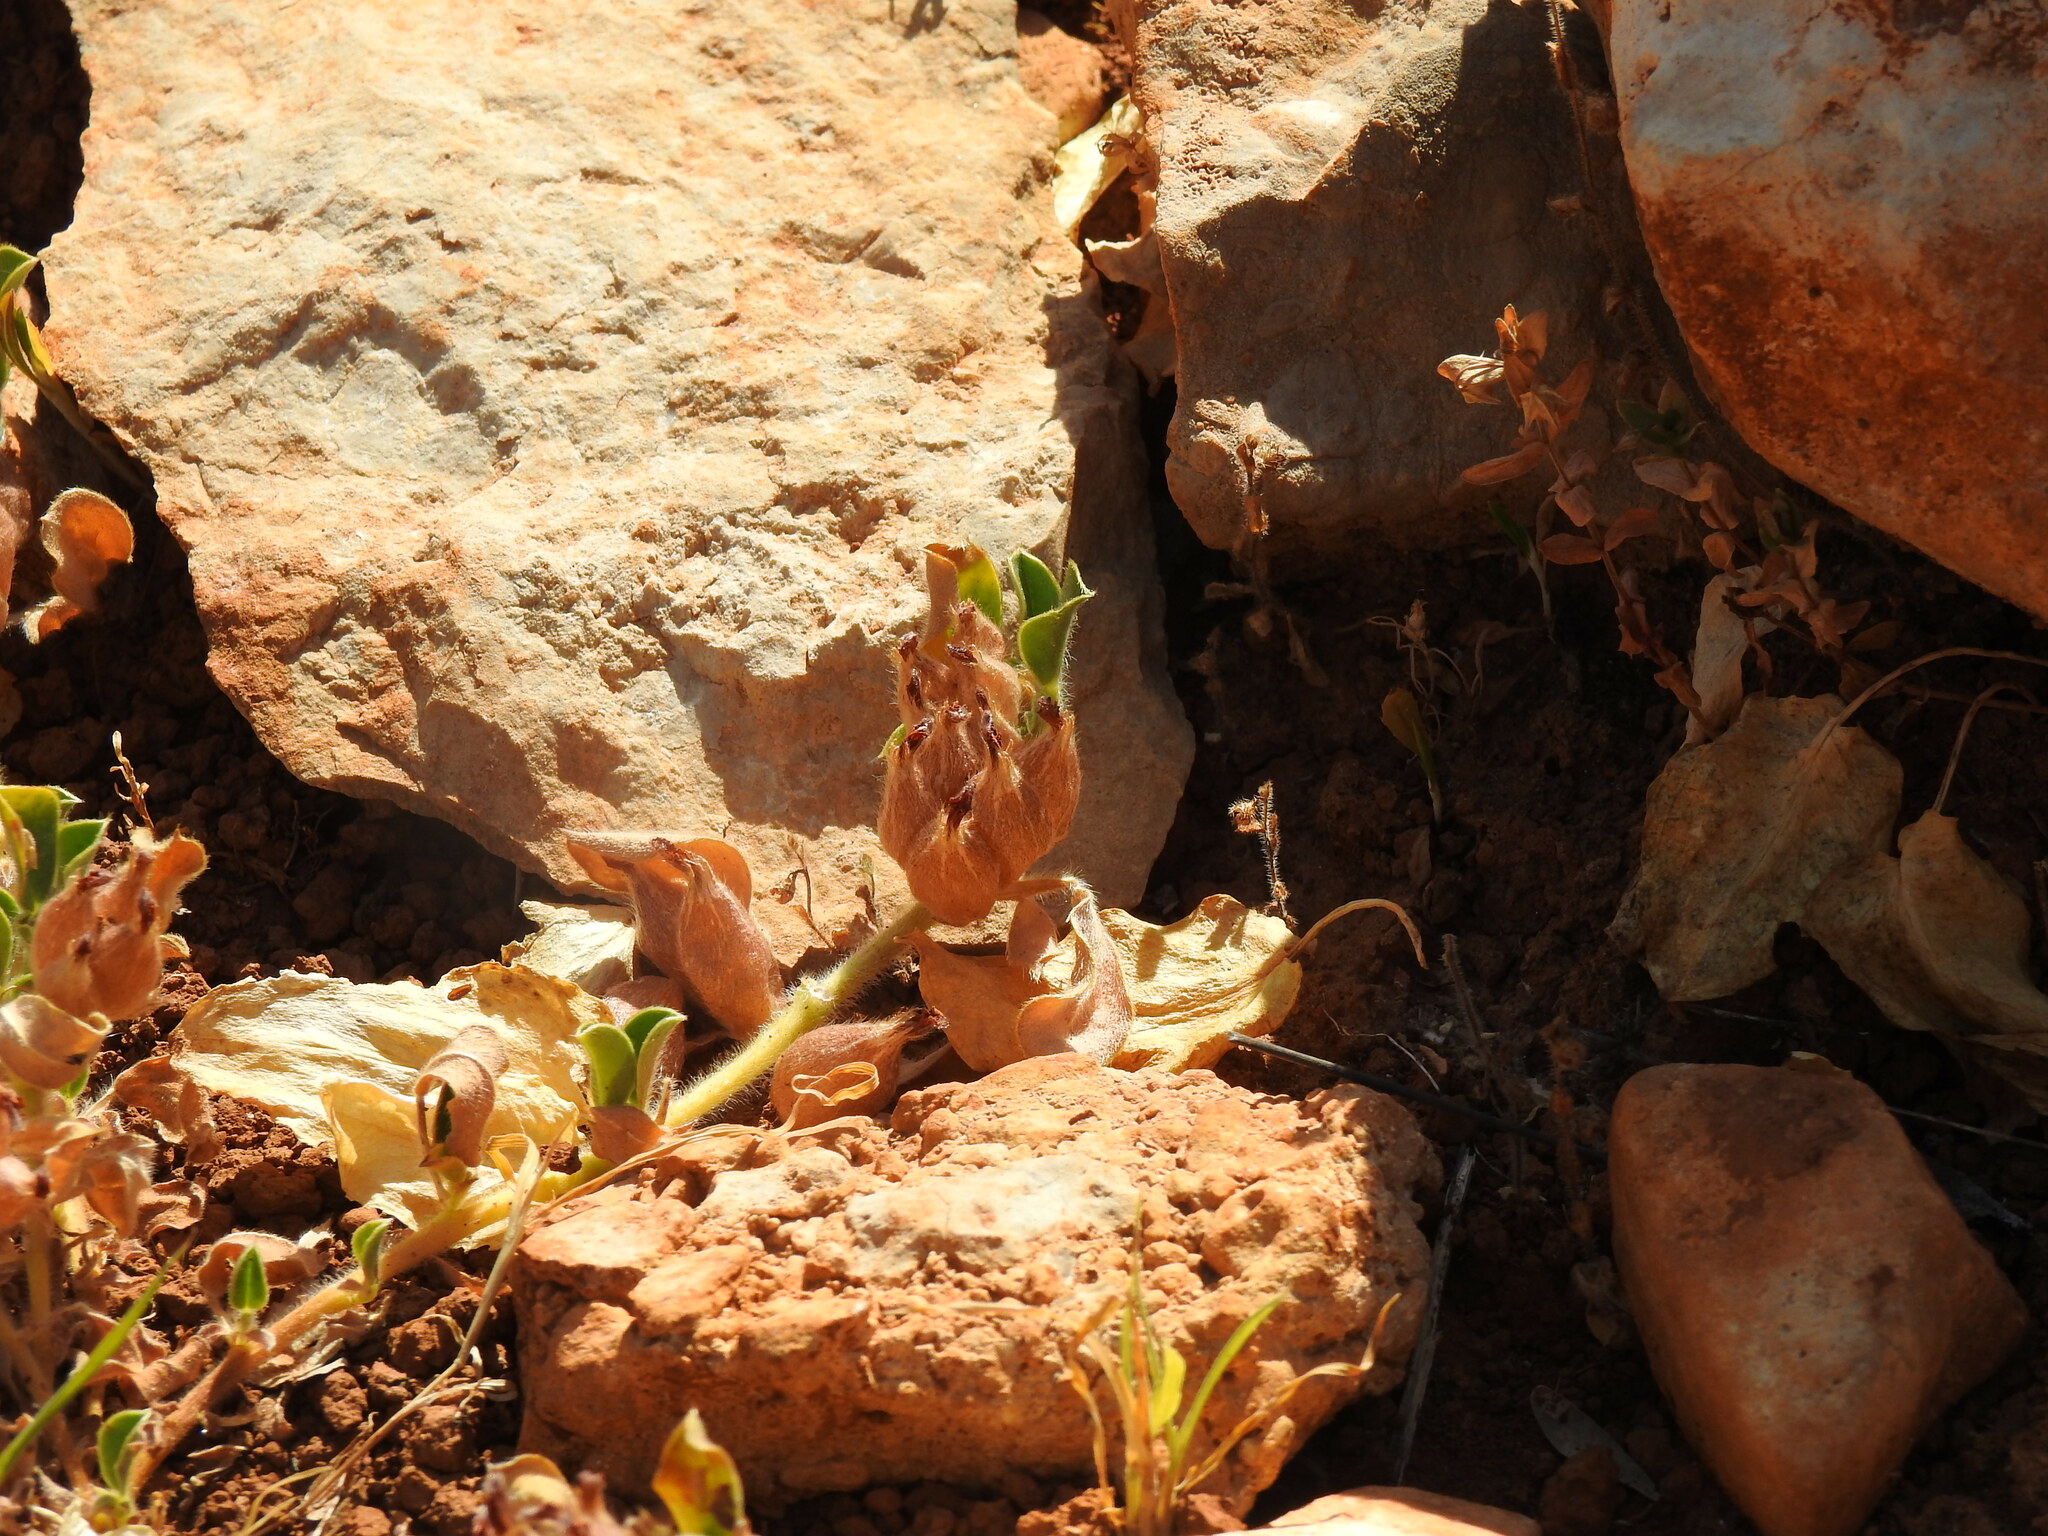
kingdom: Plantae
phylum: Tracheophyta
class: Magnoliopsida
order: Fabales
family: Fabaceae
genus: Tripodion
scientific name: Tripodion tetraphyllum
